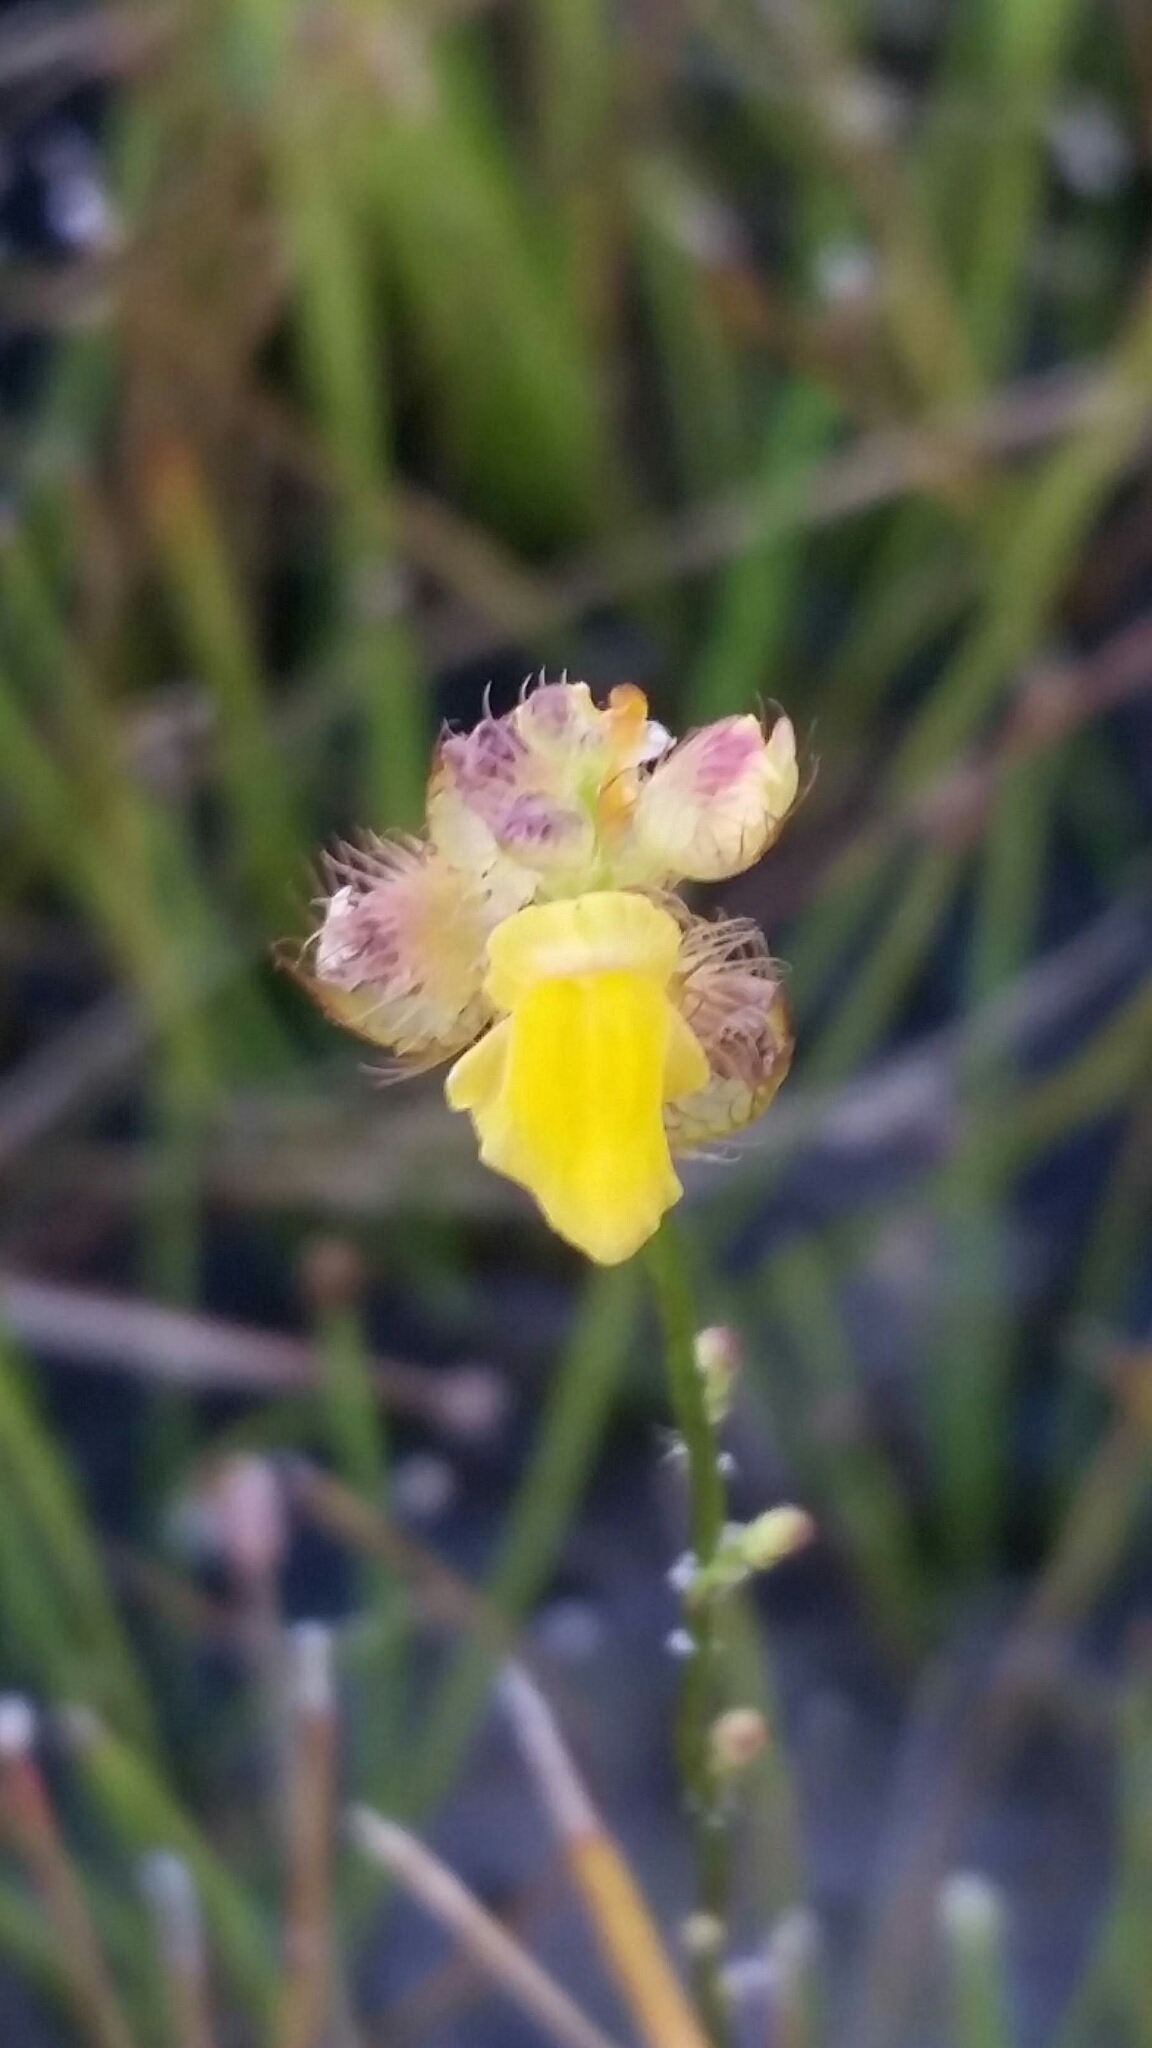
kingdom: Plantae
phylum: Tracheophyta
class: Magnoliopsida
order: Lamiales
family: Lentibulariaceae
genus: Utricularia
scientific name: Utricularia simulans
